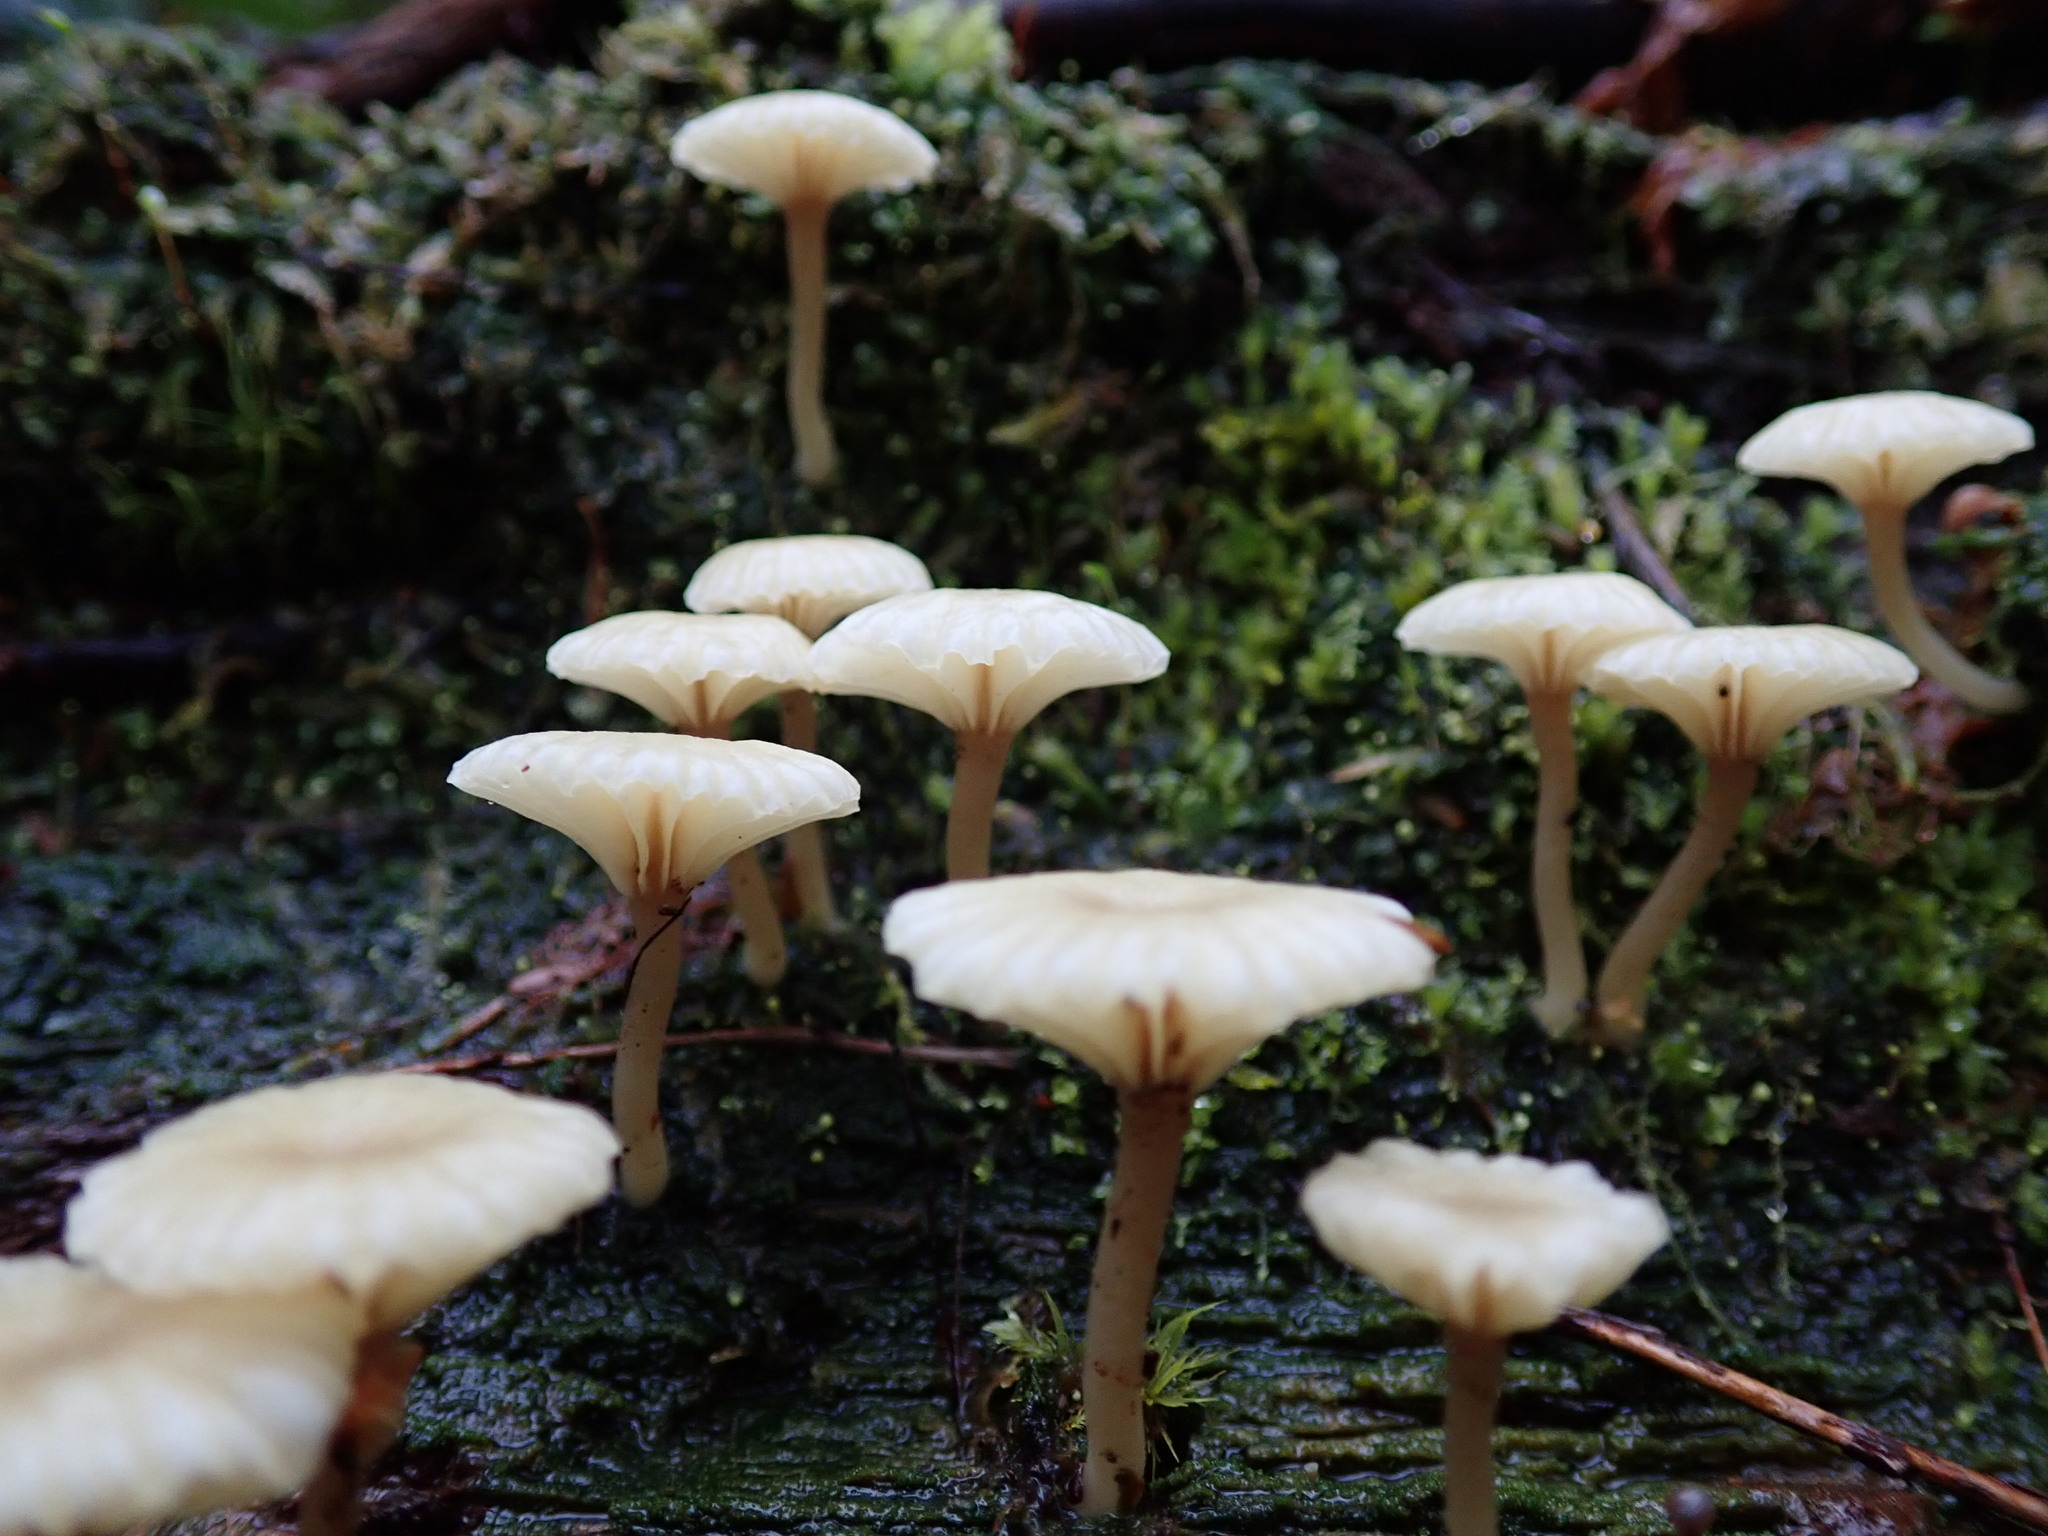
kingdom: Fungi
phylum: Basidiomycota
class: Agaricomycetes
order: Agaricales
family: Hygrophoraceae
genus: Lichenomphalia
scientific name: Lichenomphalia
